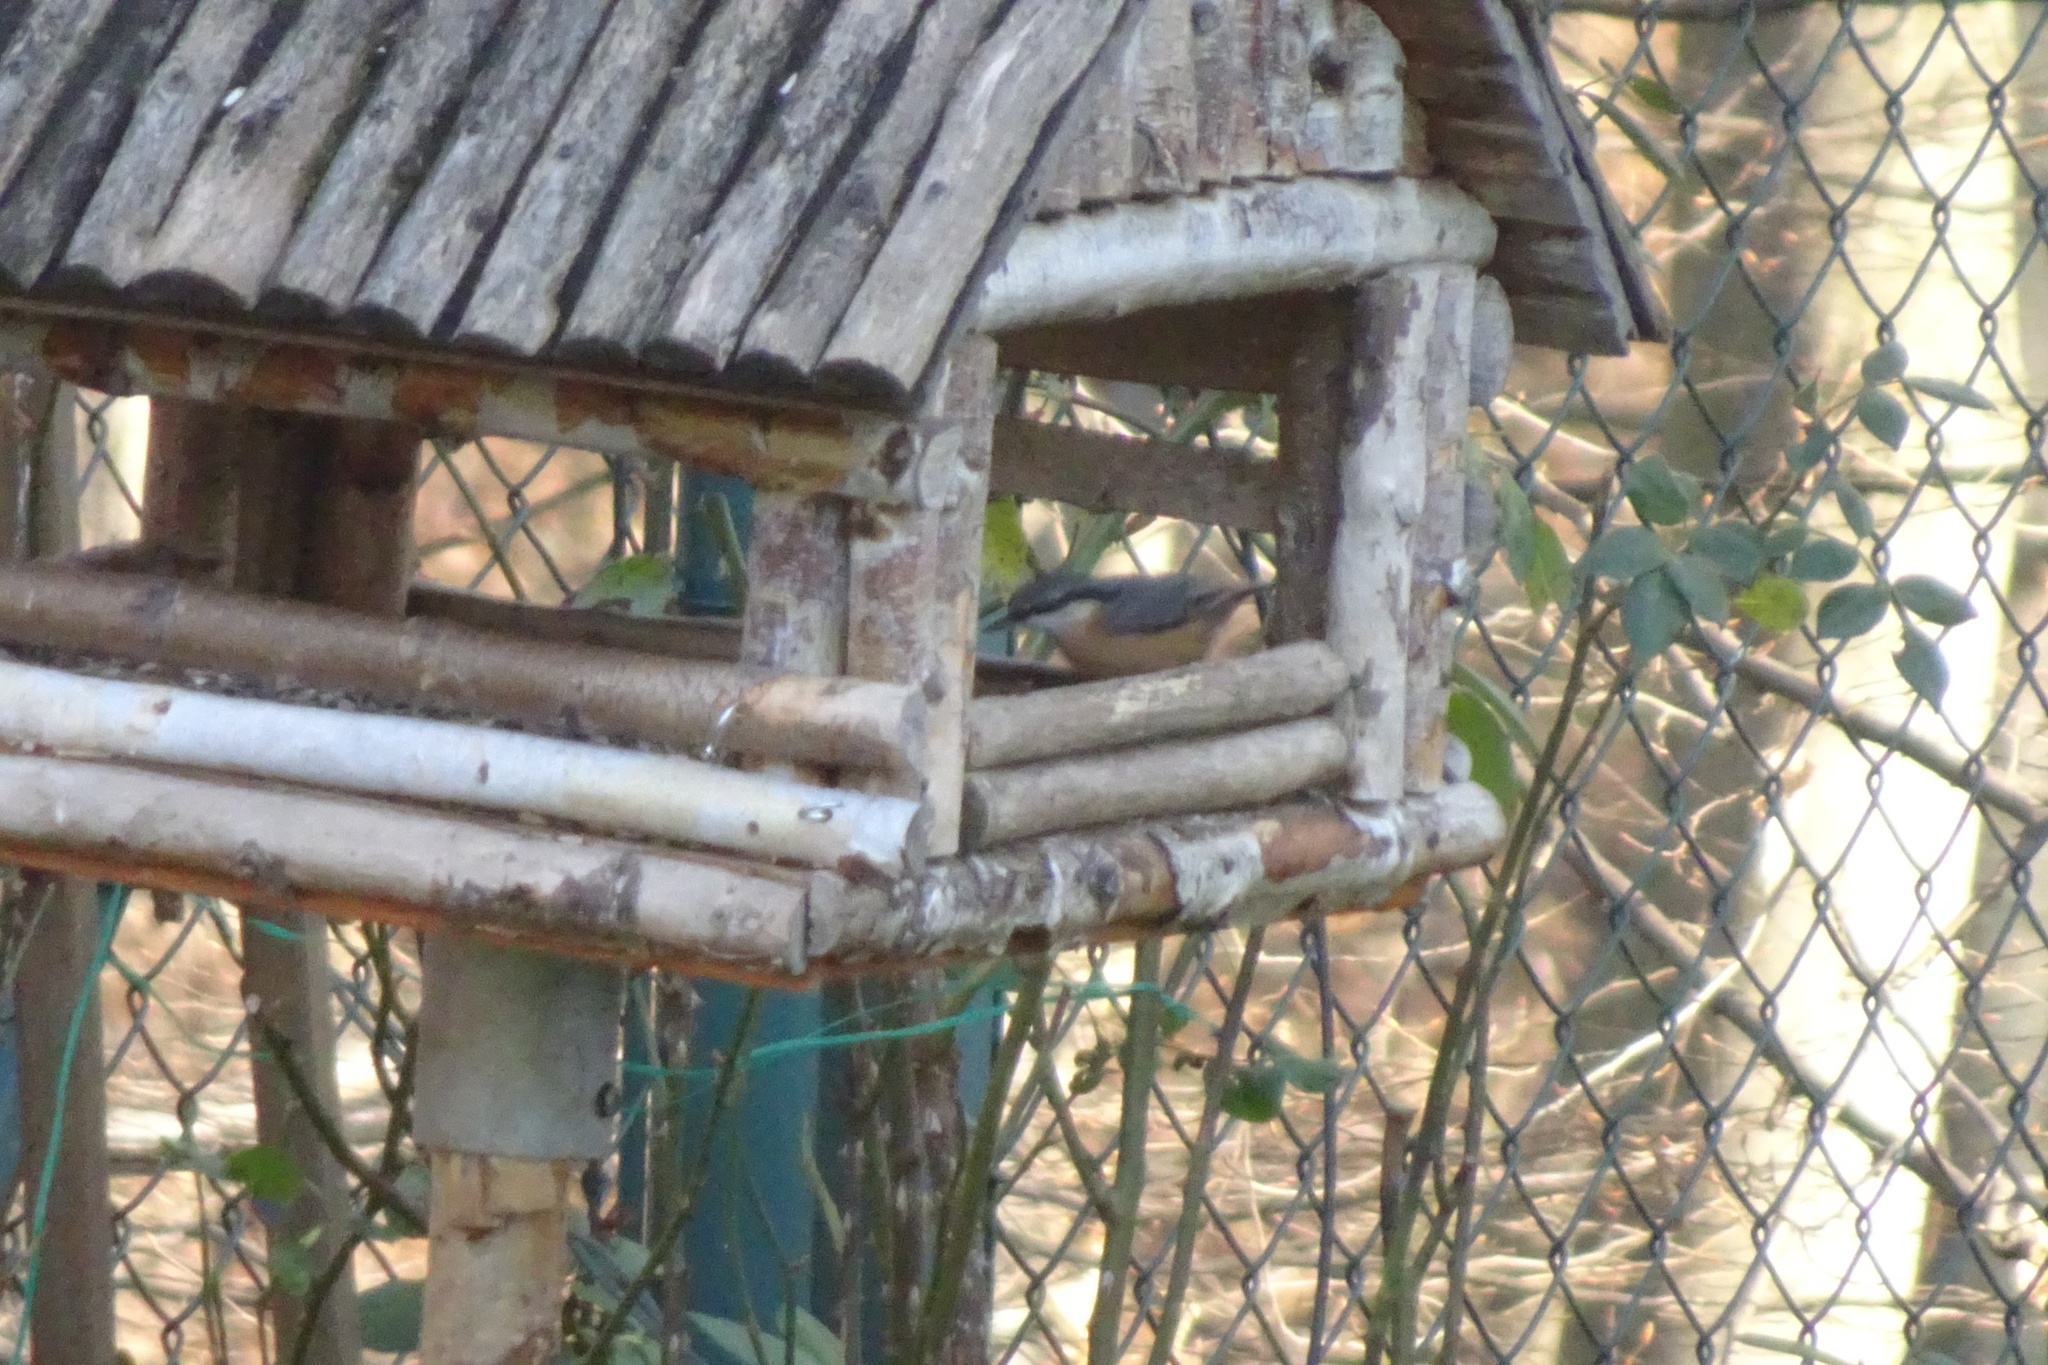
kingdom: Animalia
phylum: Chordata
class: Aves
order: Passeriformes
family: Sittidae
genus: Sitta
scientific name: Sitta europaea
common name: Eurasian nuthatch
